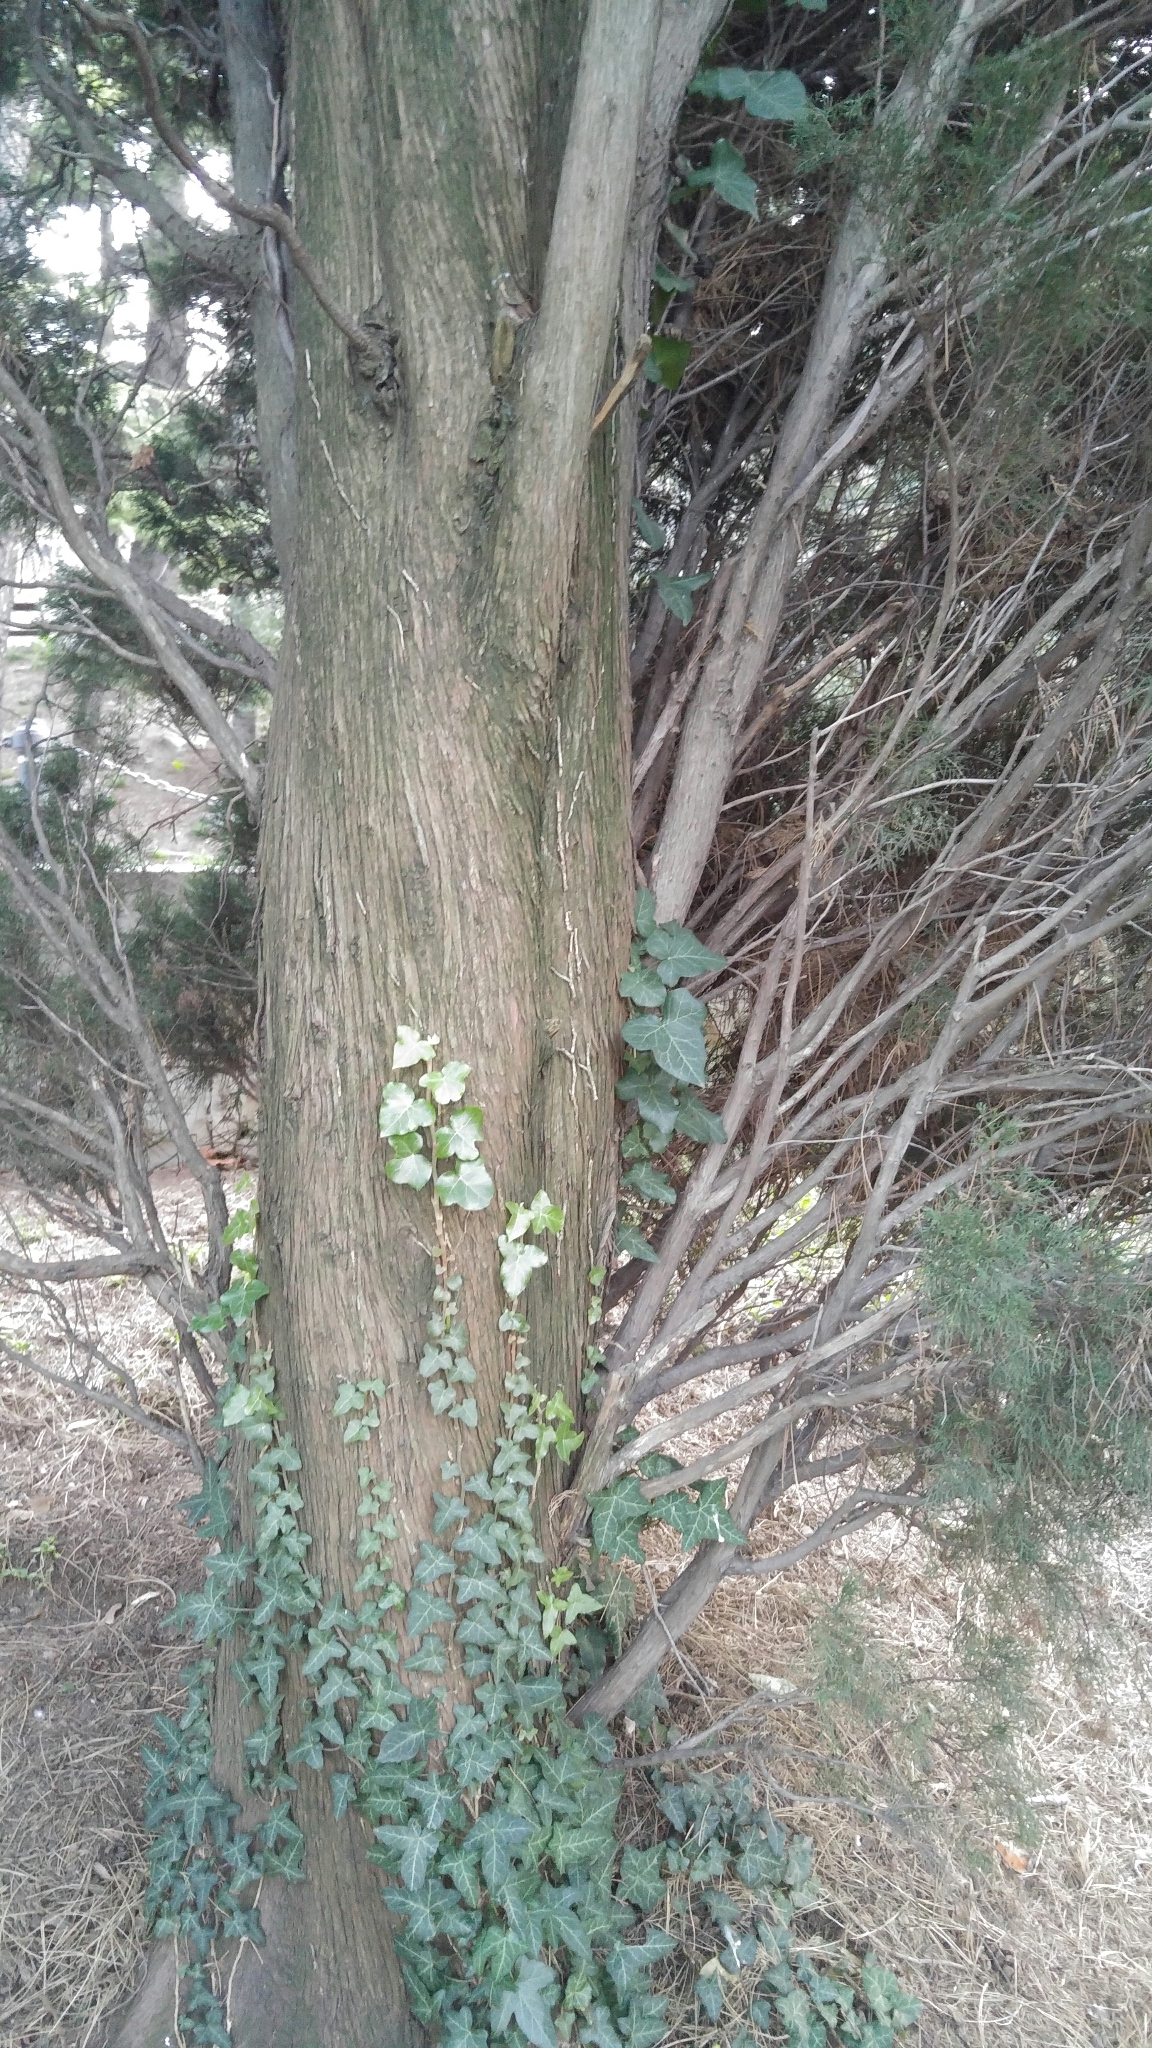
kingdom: Plantae
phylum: Tracheophyta
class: Magnoliopsida
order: Apiales
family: Araliaceae
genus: Hedera
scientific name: Hedera helix
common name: Ivy
